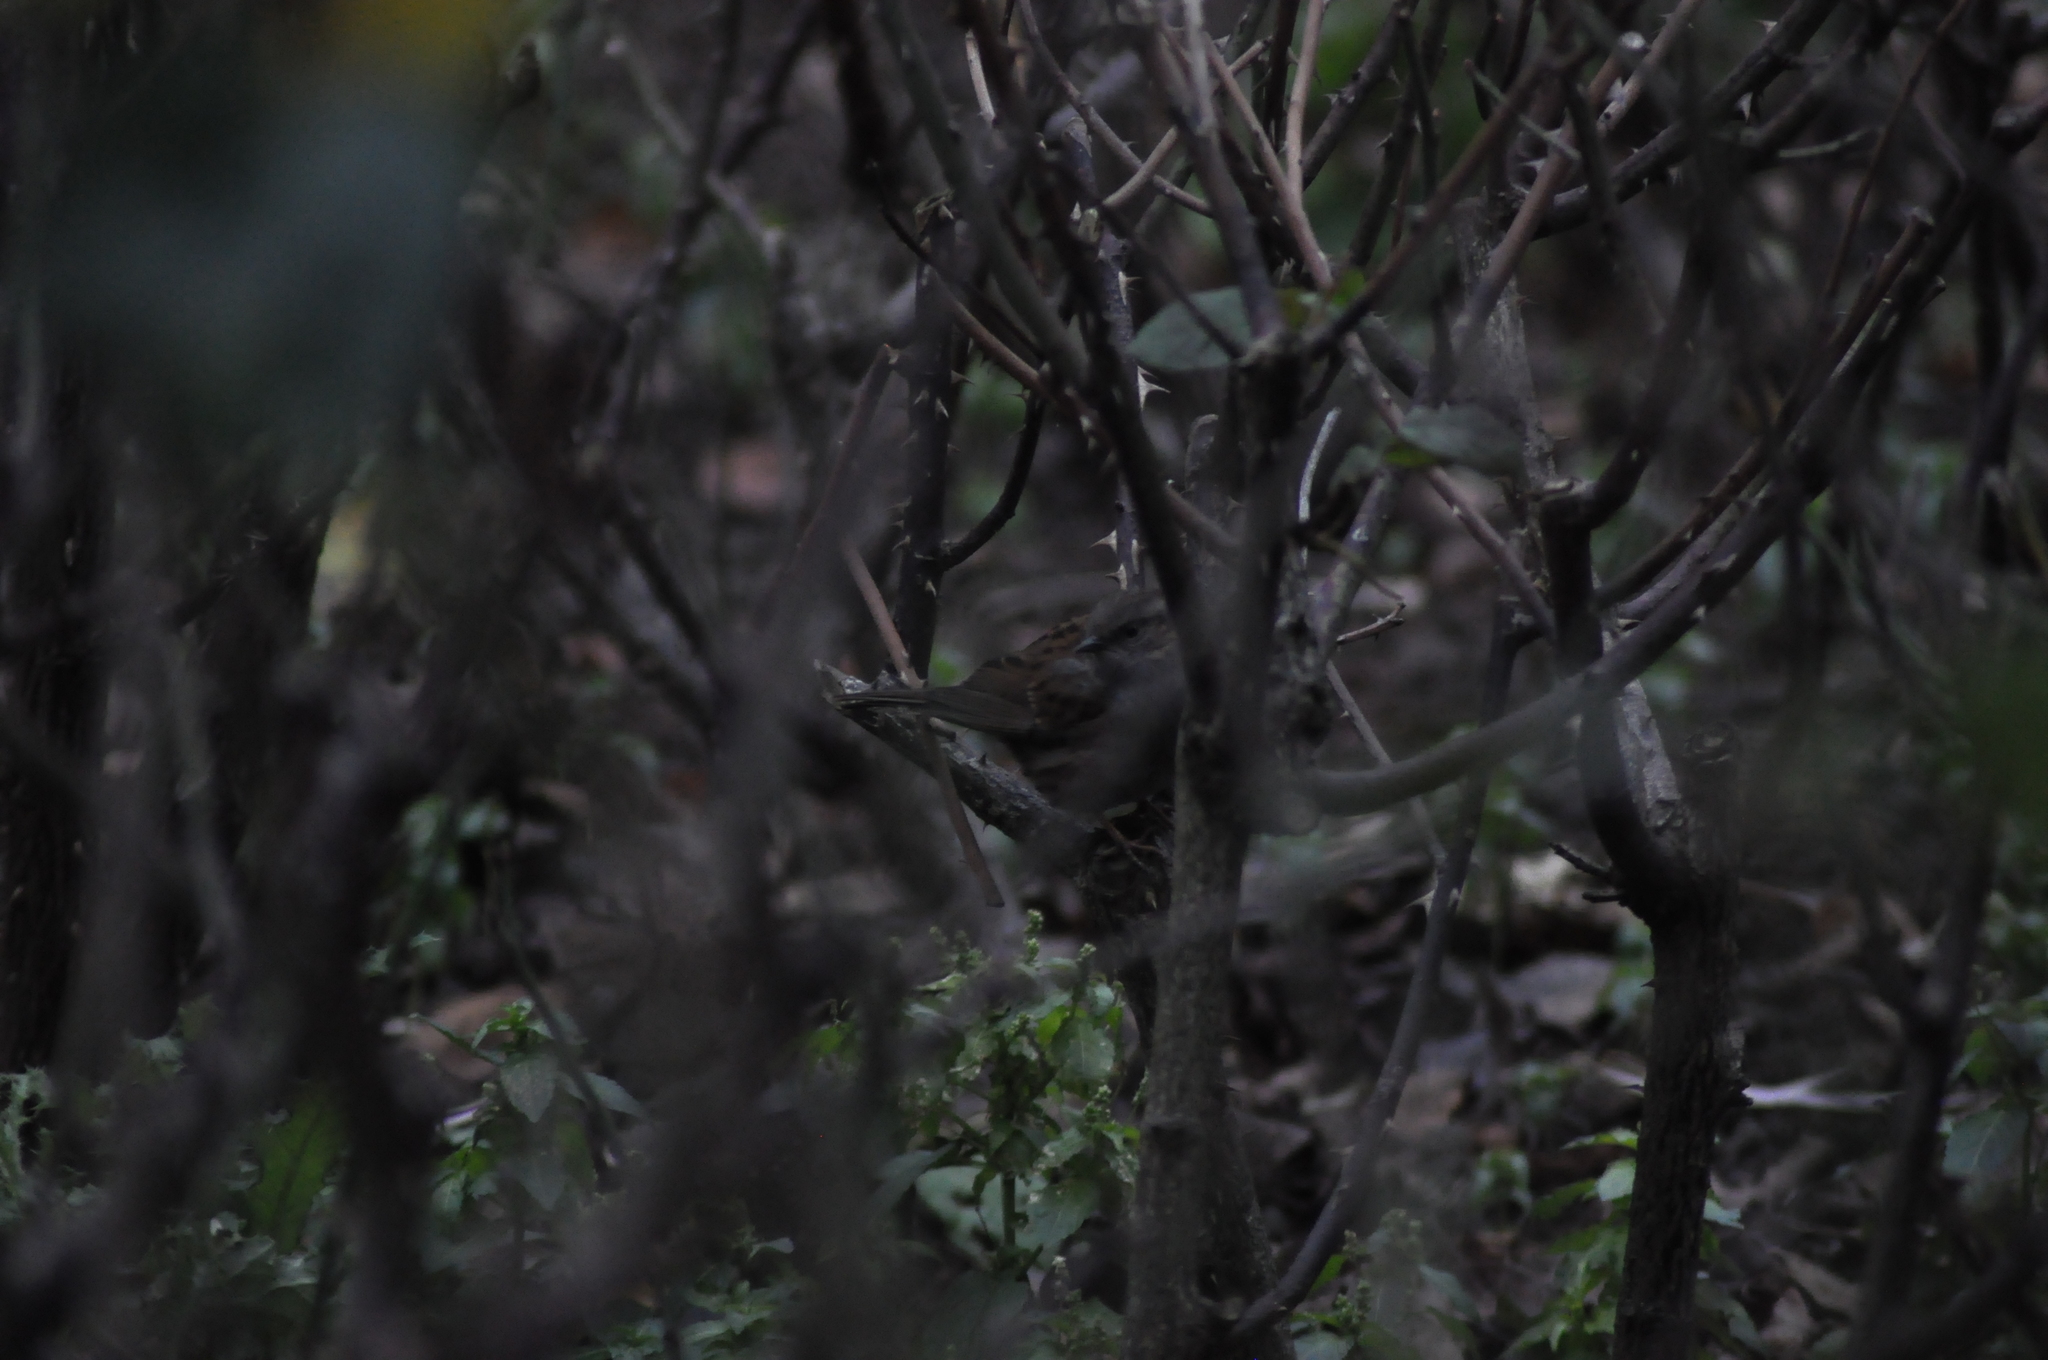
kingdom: Animalia
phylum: Chordata
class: Aves
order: Passeriformes
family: Prunellidae
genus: Prunella
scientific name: Prunella modularis
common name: Dunnock
